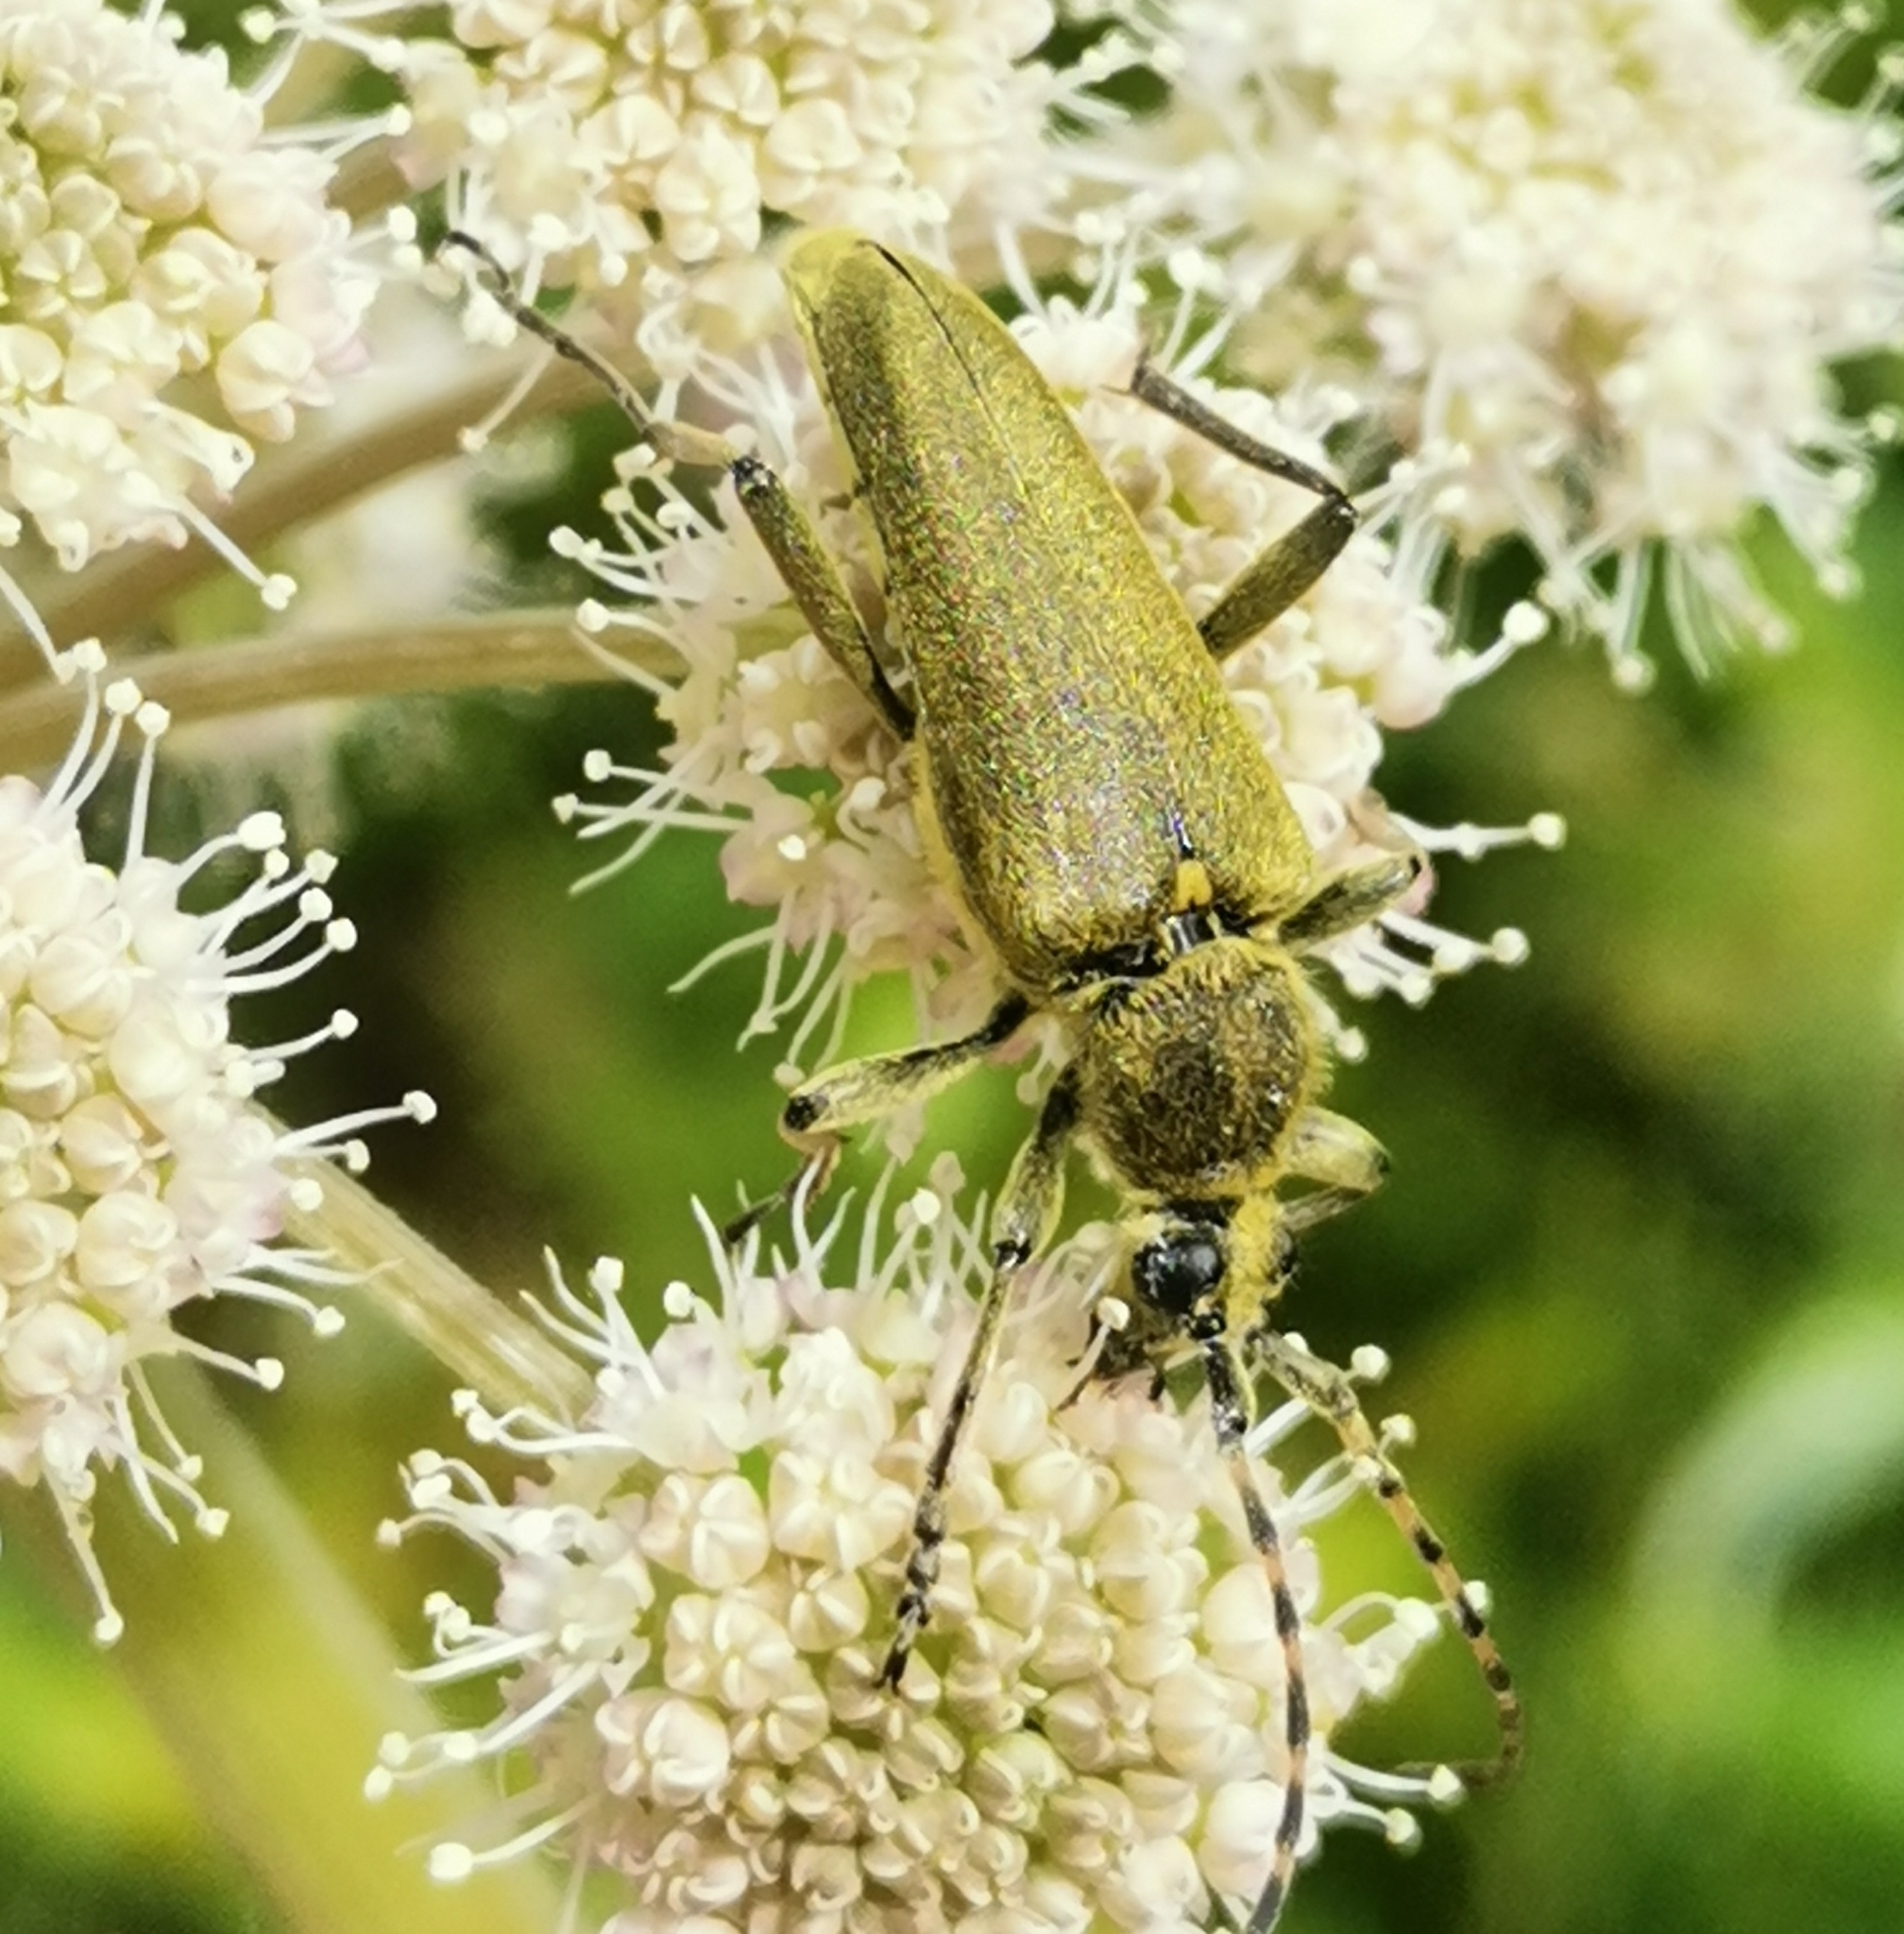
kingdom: Animalia
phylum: Arthropoda
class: Insecta
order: Coleoptera
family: Cerambycidae
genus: Lepturobosca
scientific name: Lepturobosca virens
